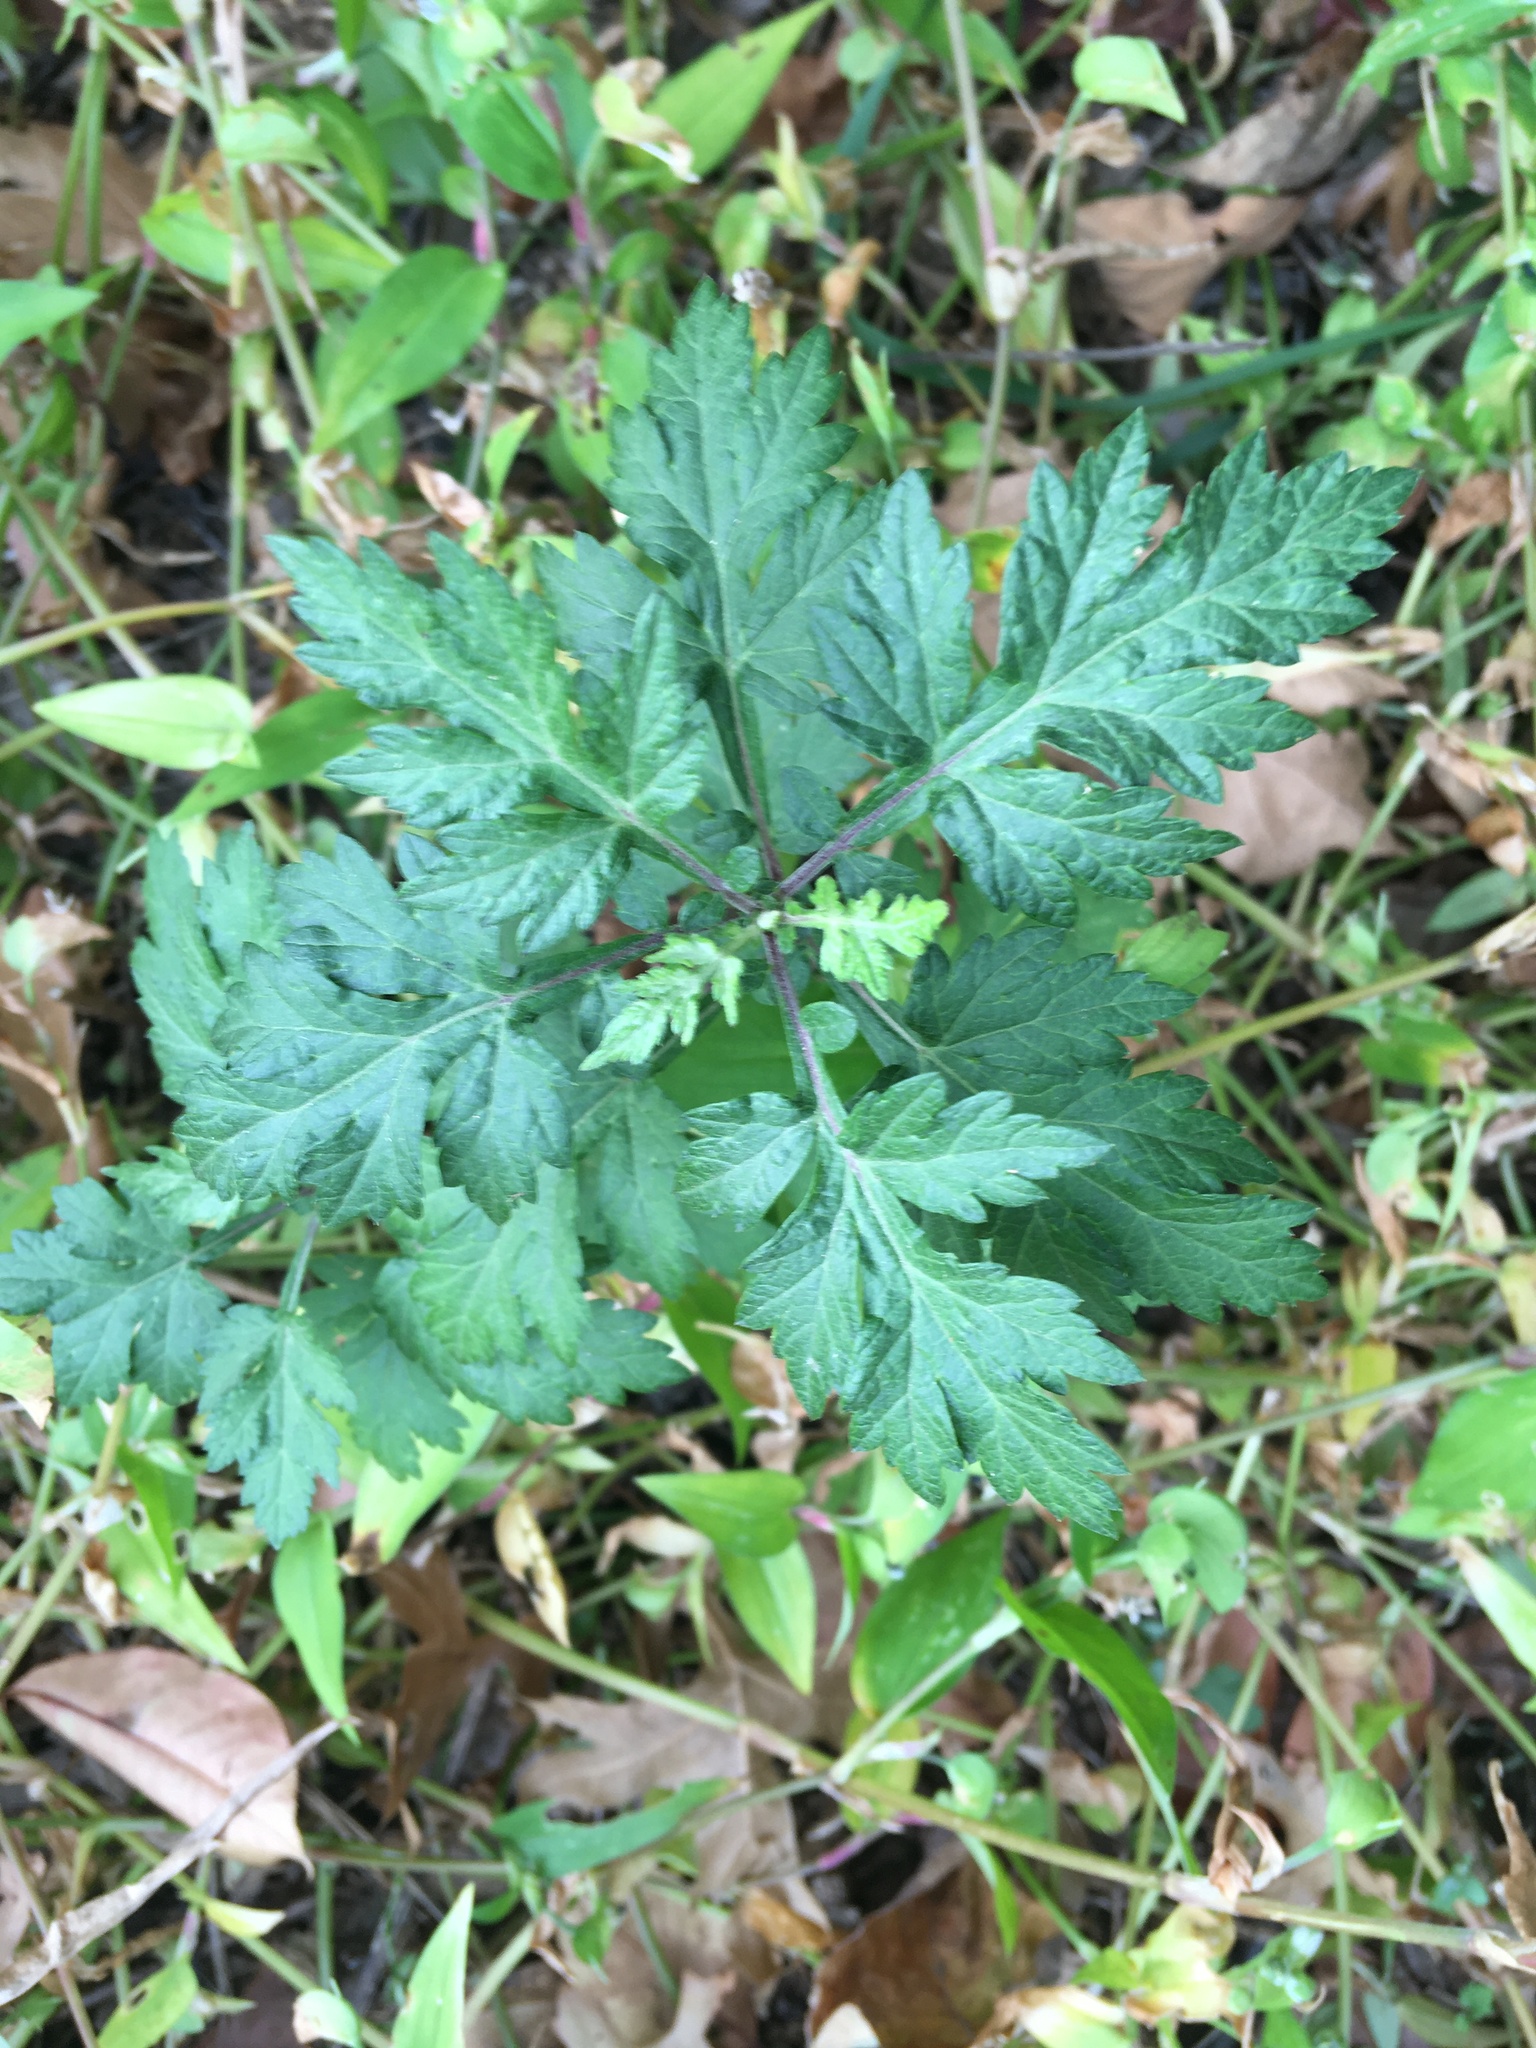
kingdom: Plantae
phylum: Tracheophyta
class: Magnoliopsida
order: Asterales
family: Asteraceae
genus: Artemisia
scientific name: Artemisia vulgaris
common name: Mugwort
